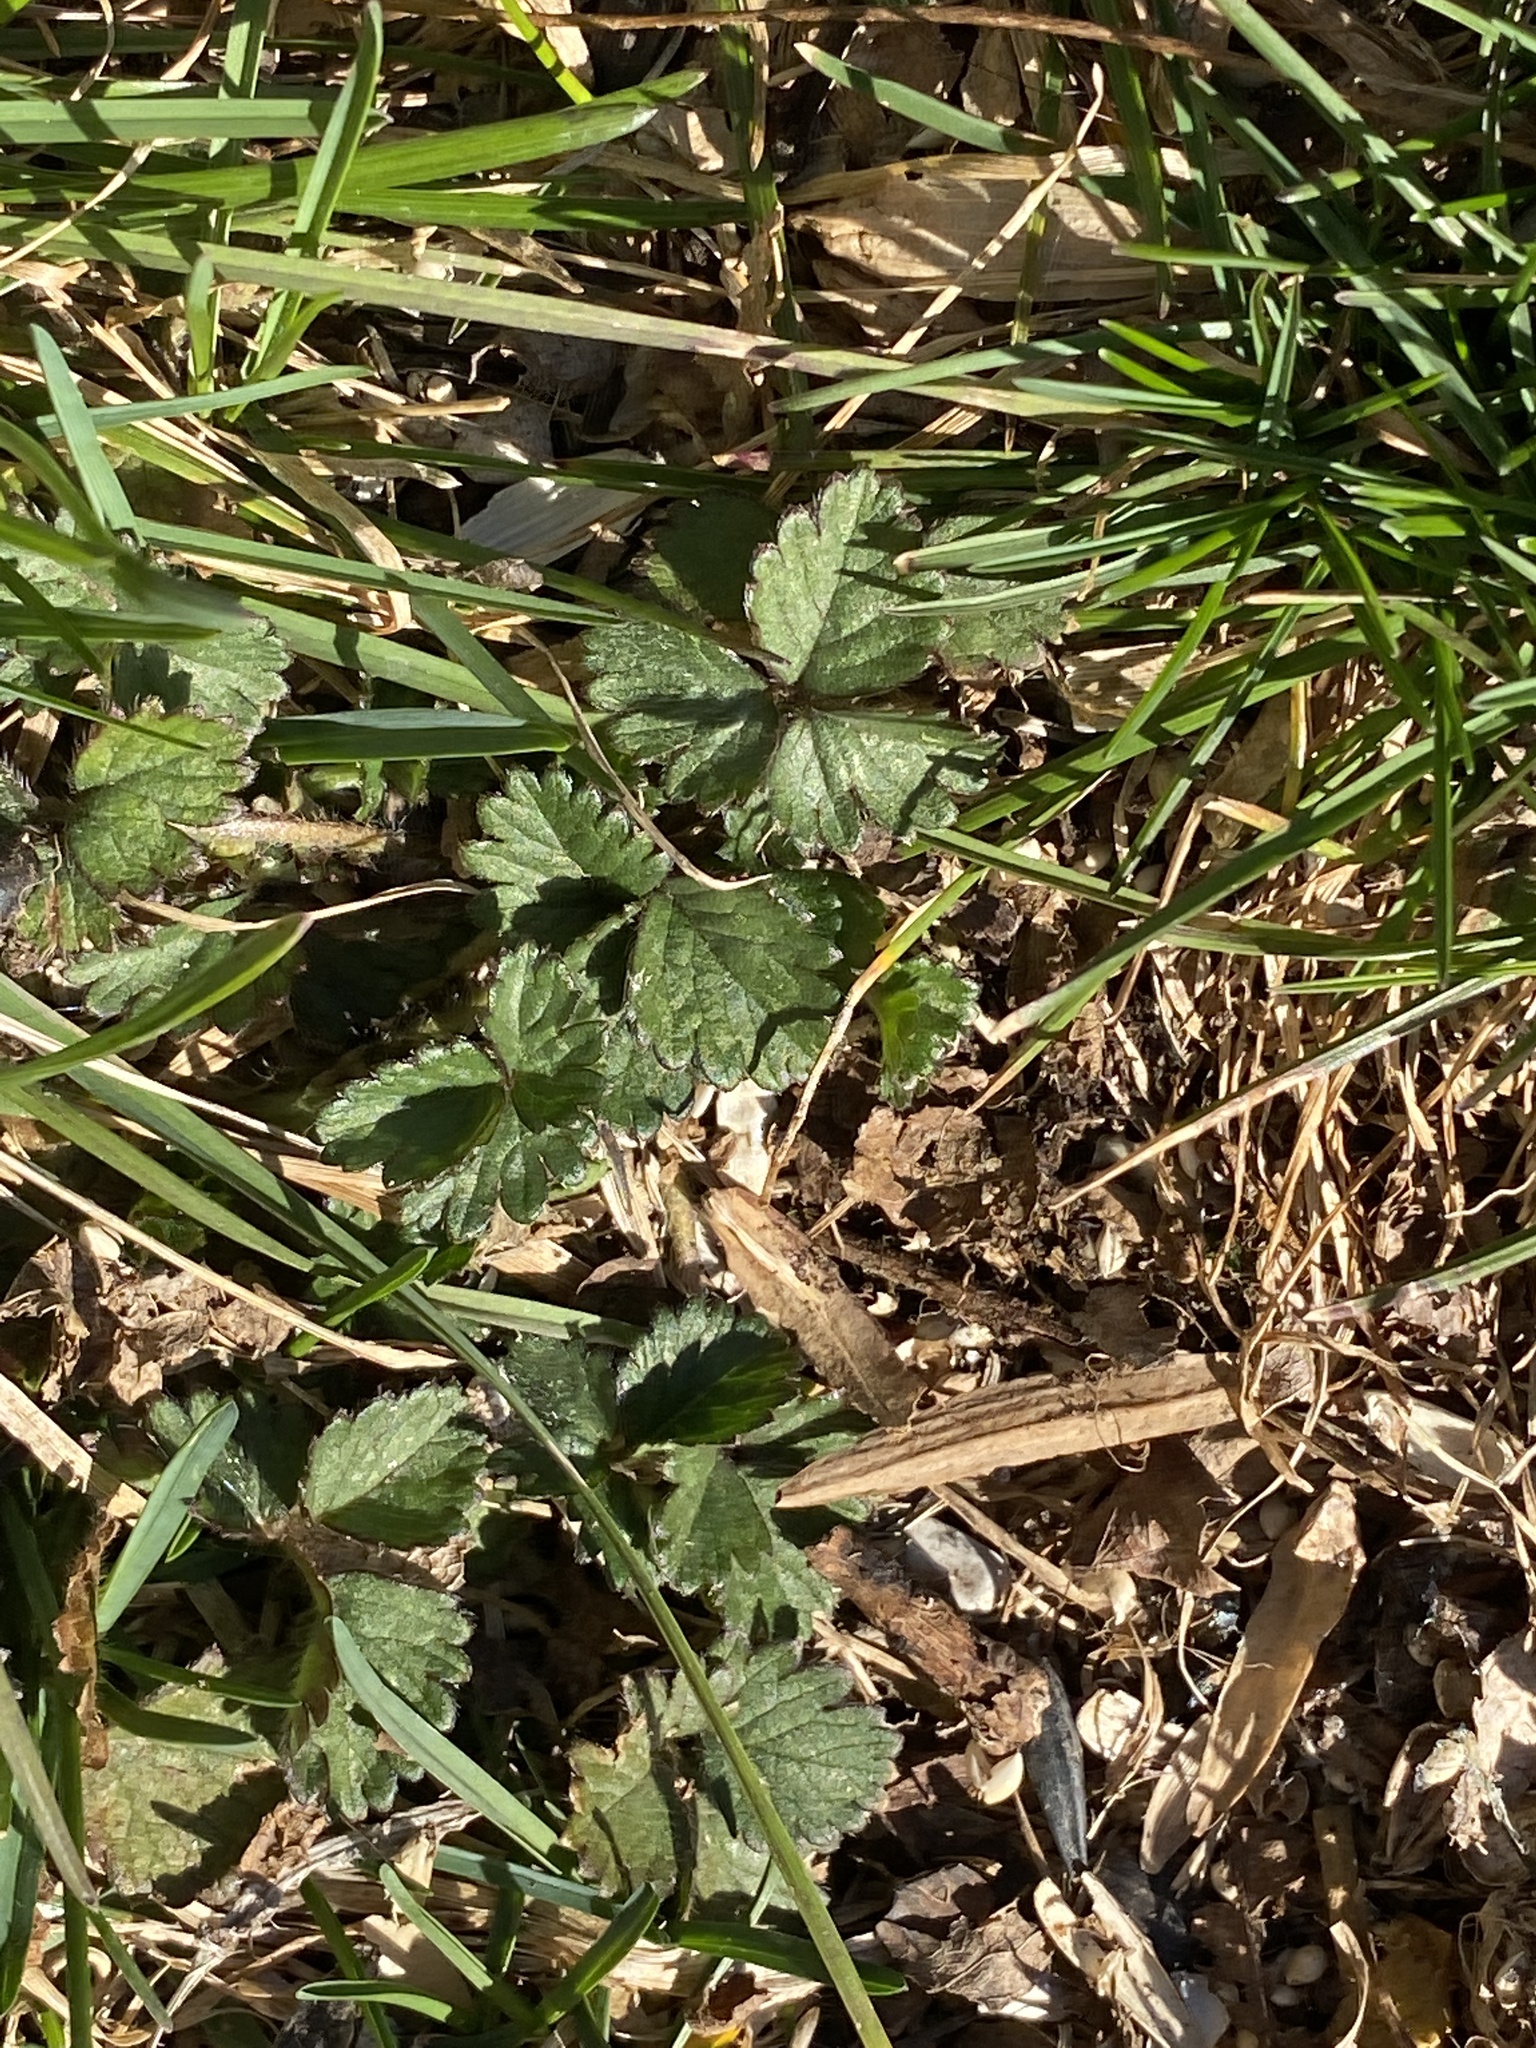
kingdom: Plantae
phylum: Tracheophyta
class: Magnoliopsida
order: Rosales
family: Rosaceae
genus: Potentilla
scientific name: Potentilla indica
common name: Yellow-flowered strawberry
